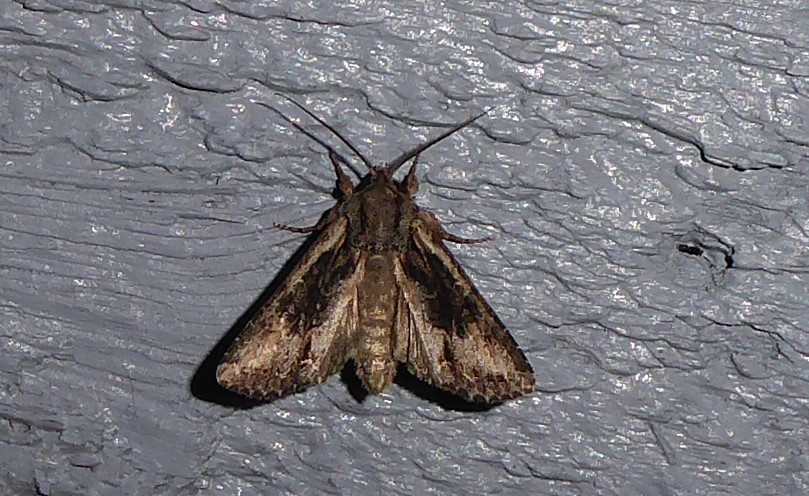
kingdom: Animalia
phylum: Arthropoda
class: Insecta
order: Lepidoptera
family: Noctuidae
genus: Ichneutica
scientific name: Ichneutica mutans
